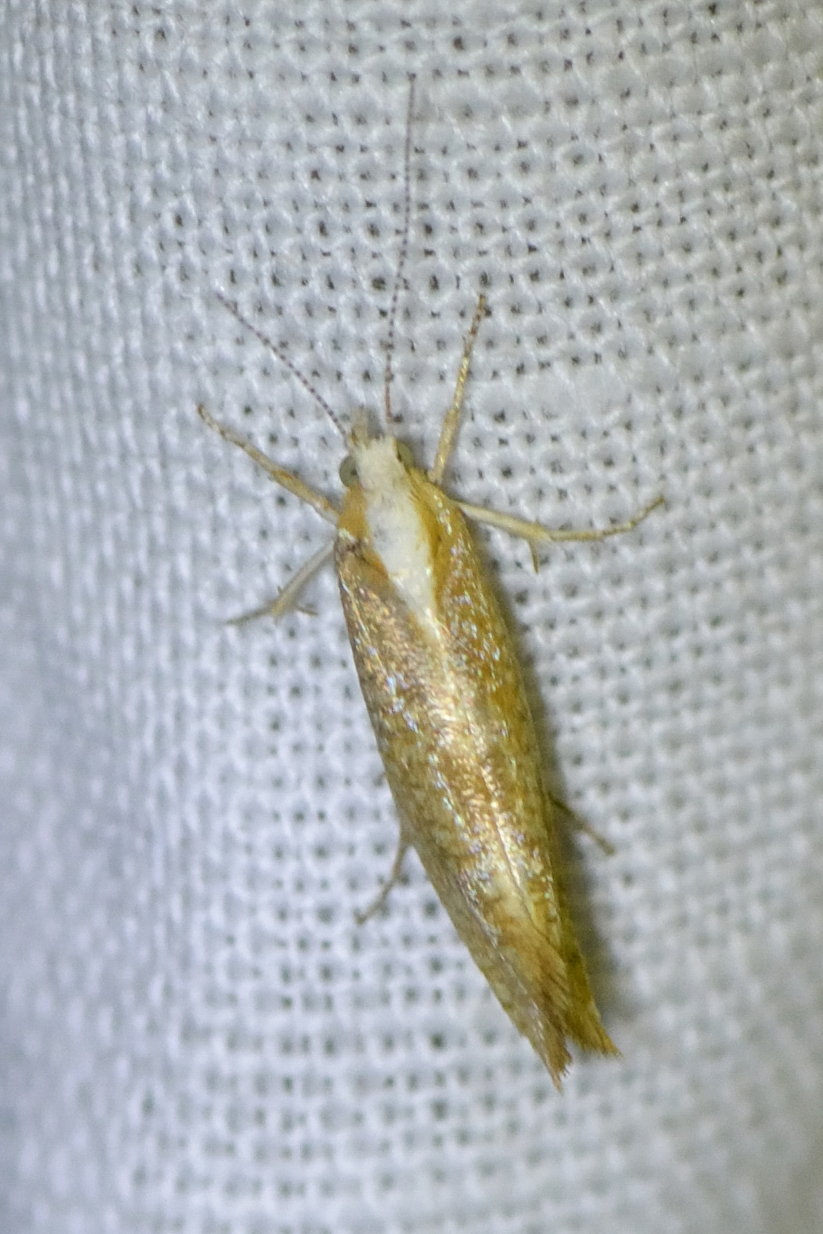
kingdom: Animalia
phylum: Arthropoda
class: Insecta
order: Lepidoptera
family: Ypsolophidae
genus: Ypsolopha
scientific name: Ypsolopha lucella
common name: Plain smudge
